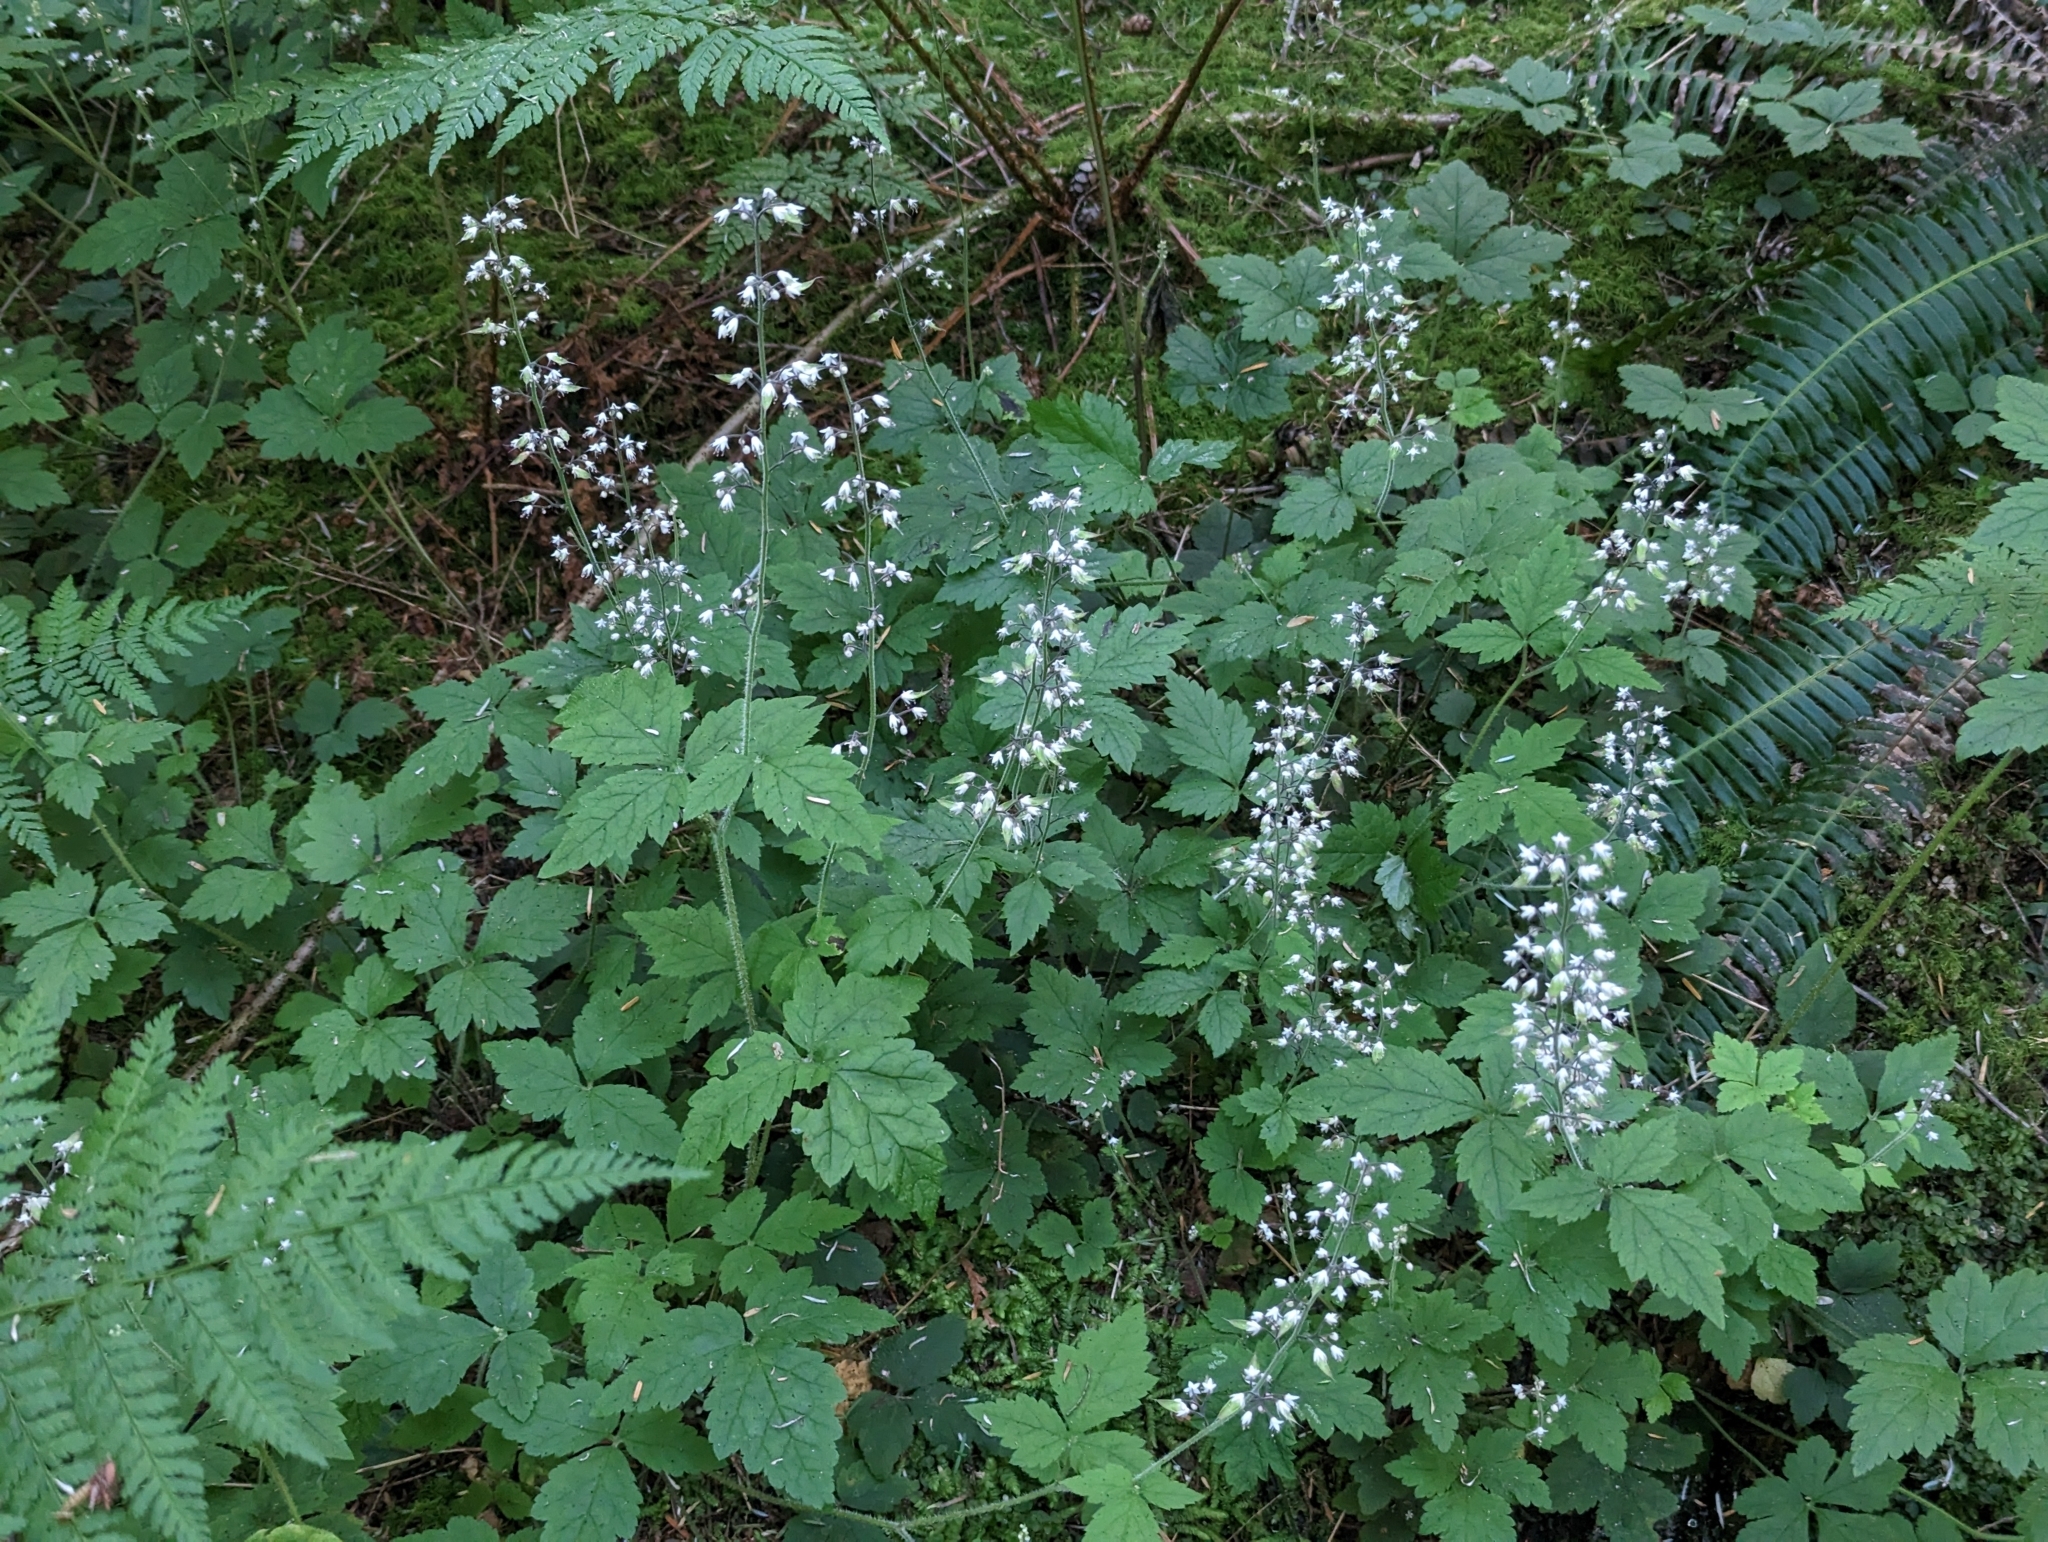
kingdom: Plantae
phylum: Tracheophyta
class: Magnoliopsida
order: Saxifragales
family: Saxifragaceae
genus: Tiarella
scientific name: Tiarella trifoliata
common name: Sugar-scoop
